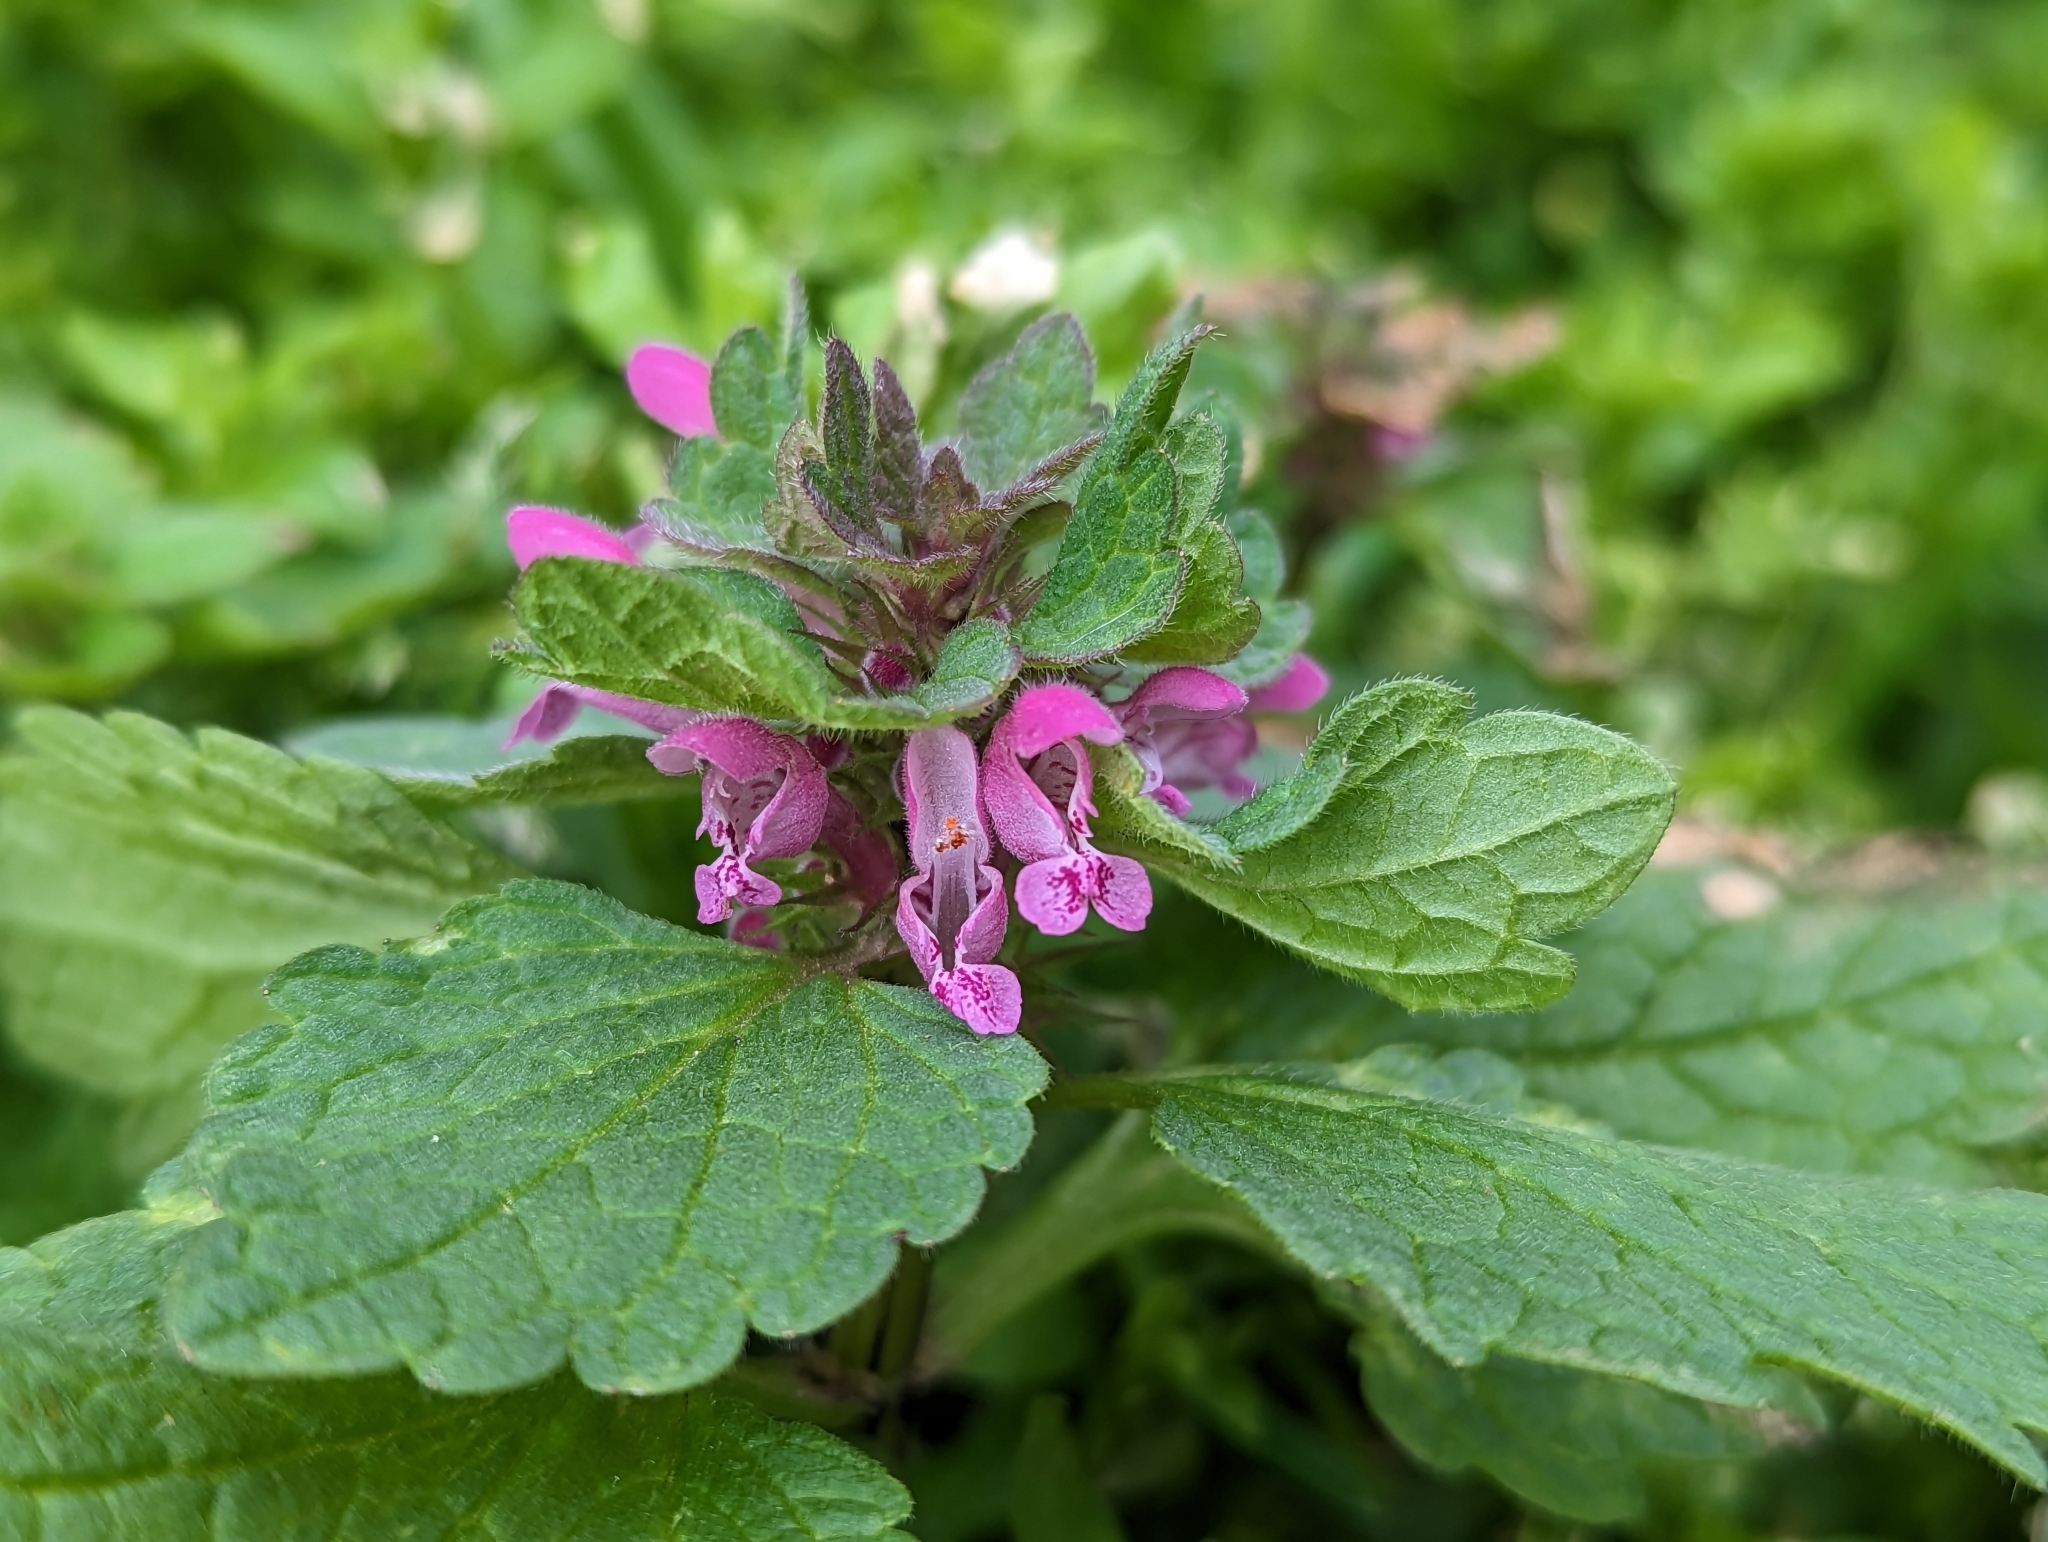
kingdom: Plantae
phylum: Tracheophyta
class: Magnoliopsida
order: Lamiales
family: Lamiaceae
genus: Lamium
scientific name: Lamium purpureum
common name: Red dead-nettle
